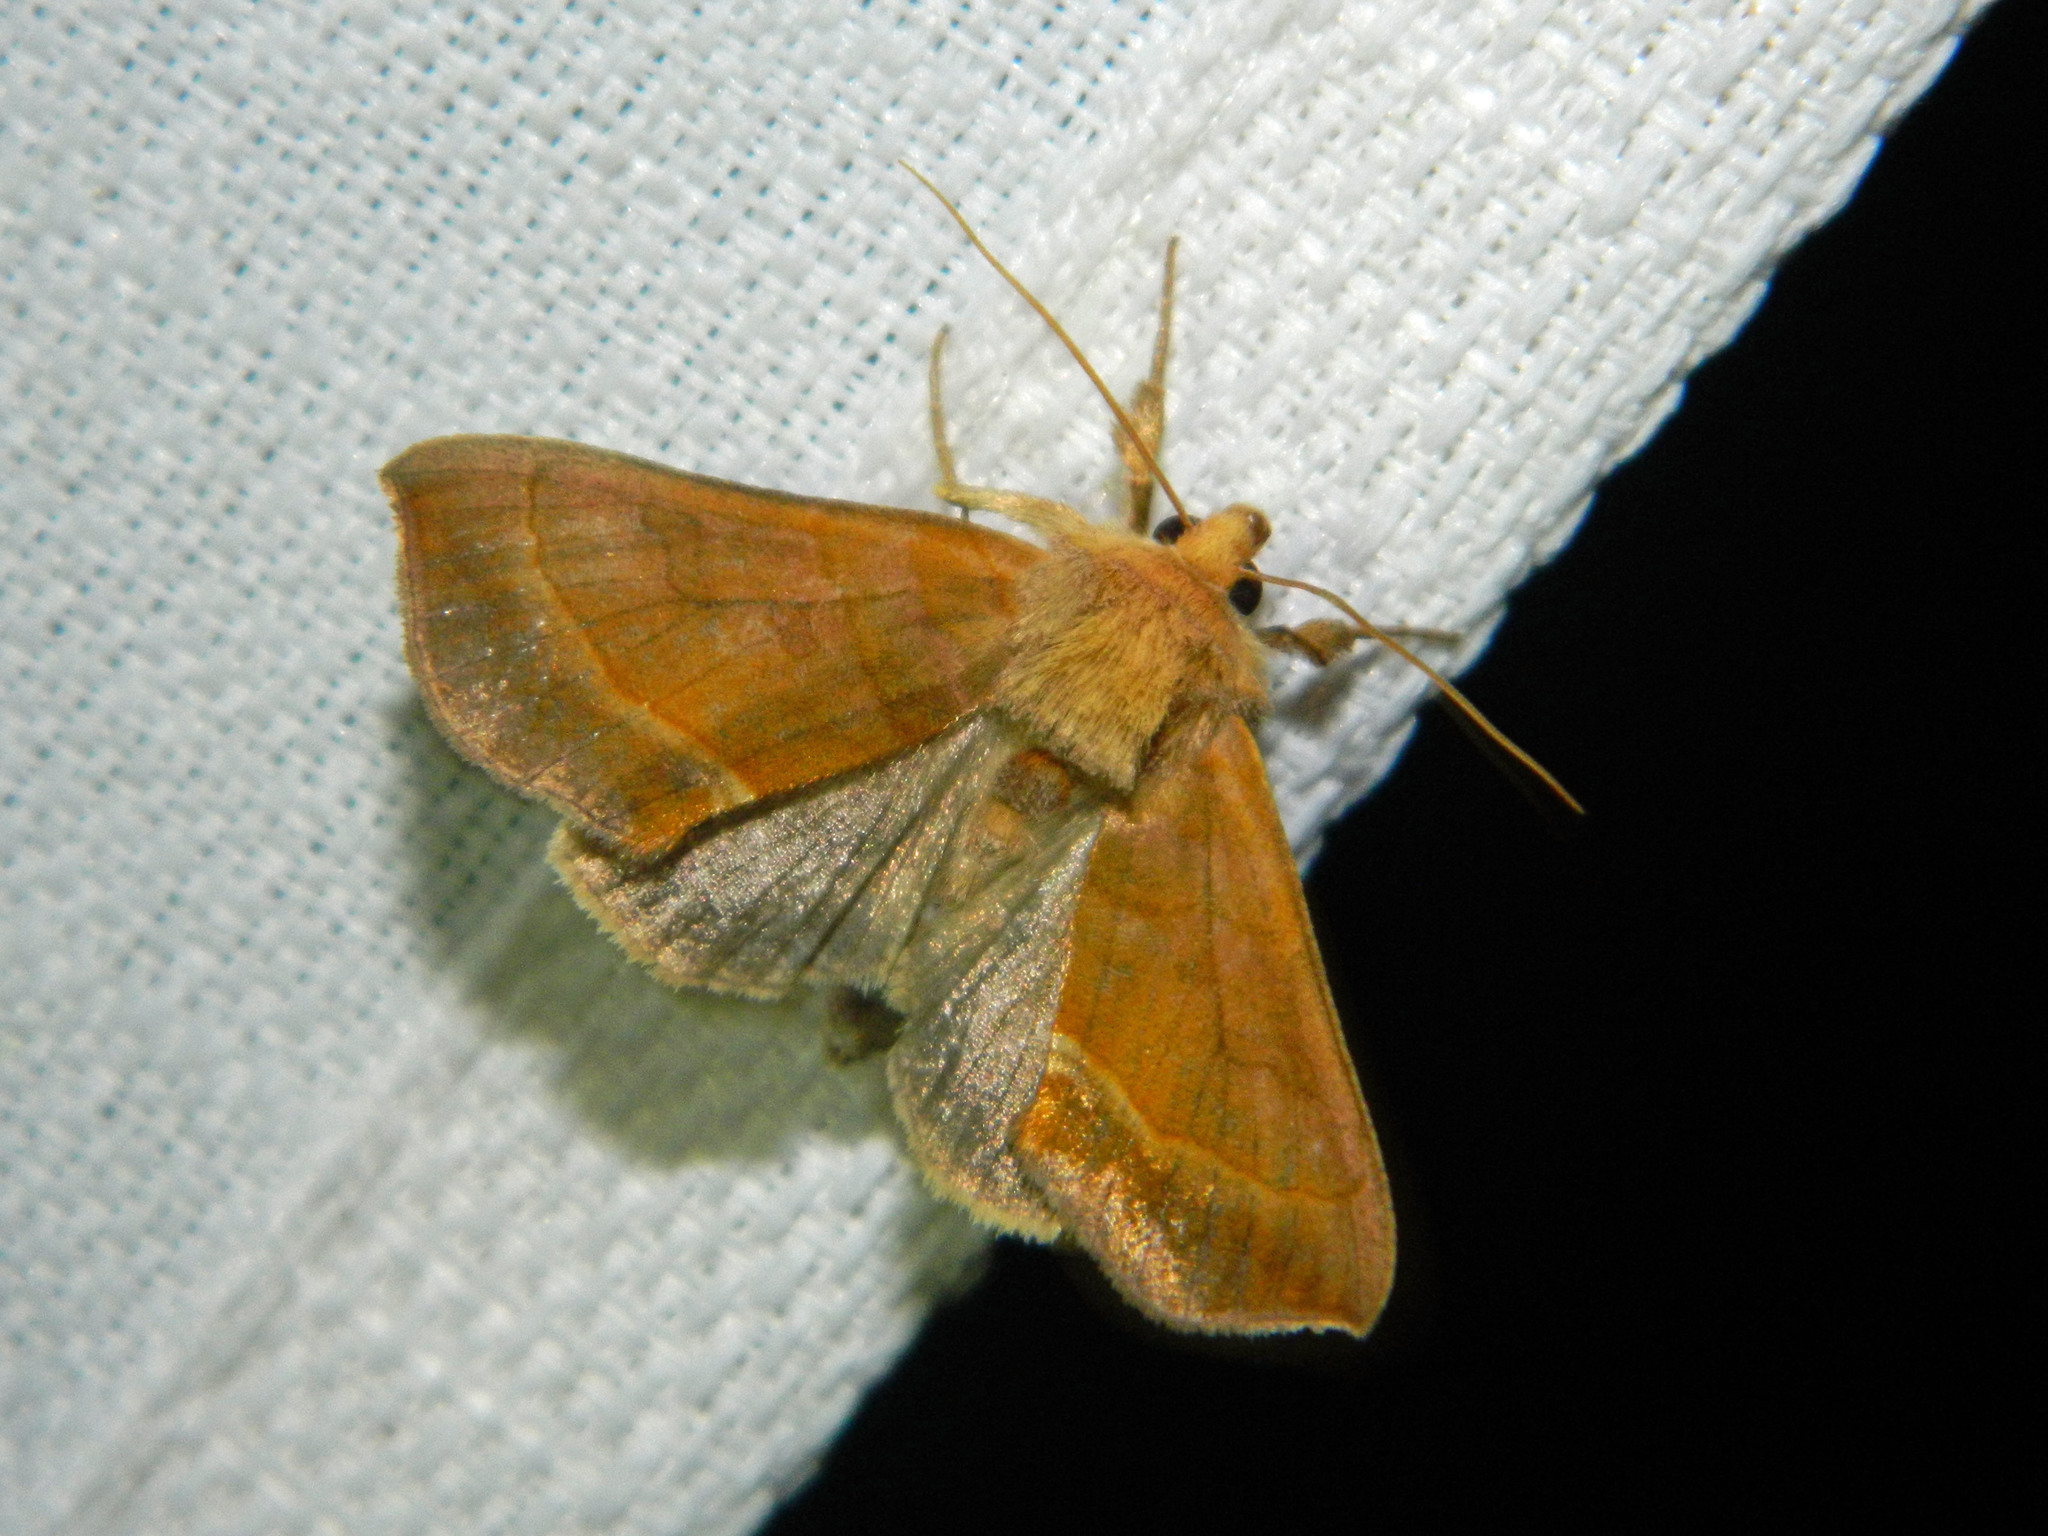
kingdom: Animalia
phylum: Arthropoda
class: Insecta
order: Lepidoptera
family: Noctuidae
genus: Diachrysia
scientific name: Diachrysia aereoides
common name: Dark-spotted looper moth
